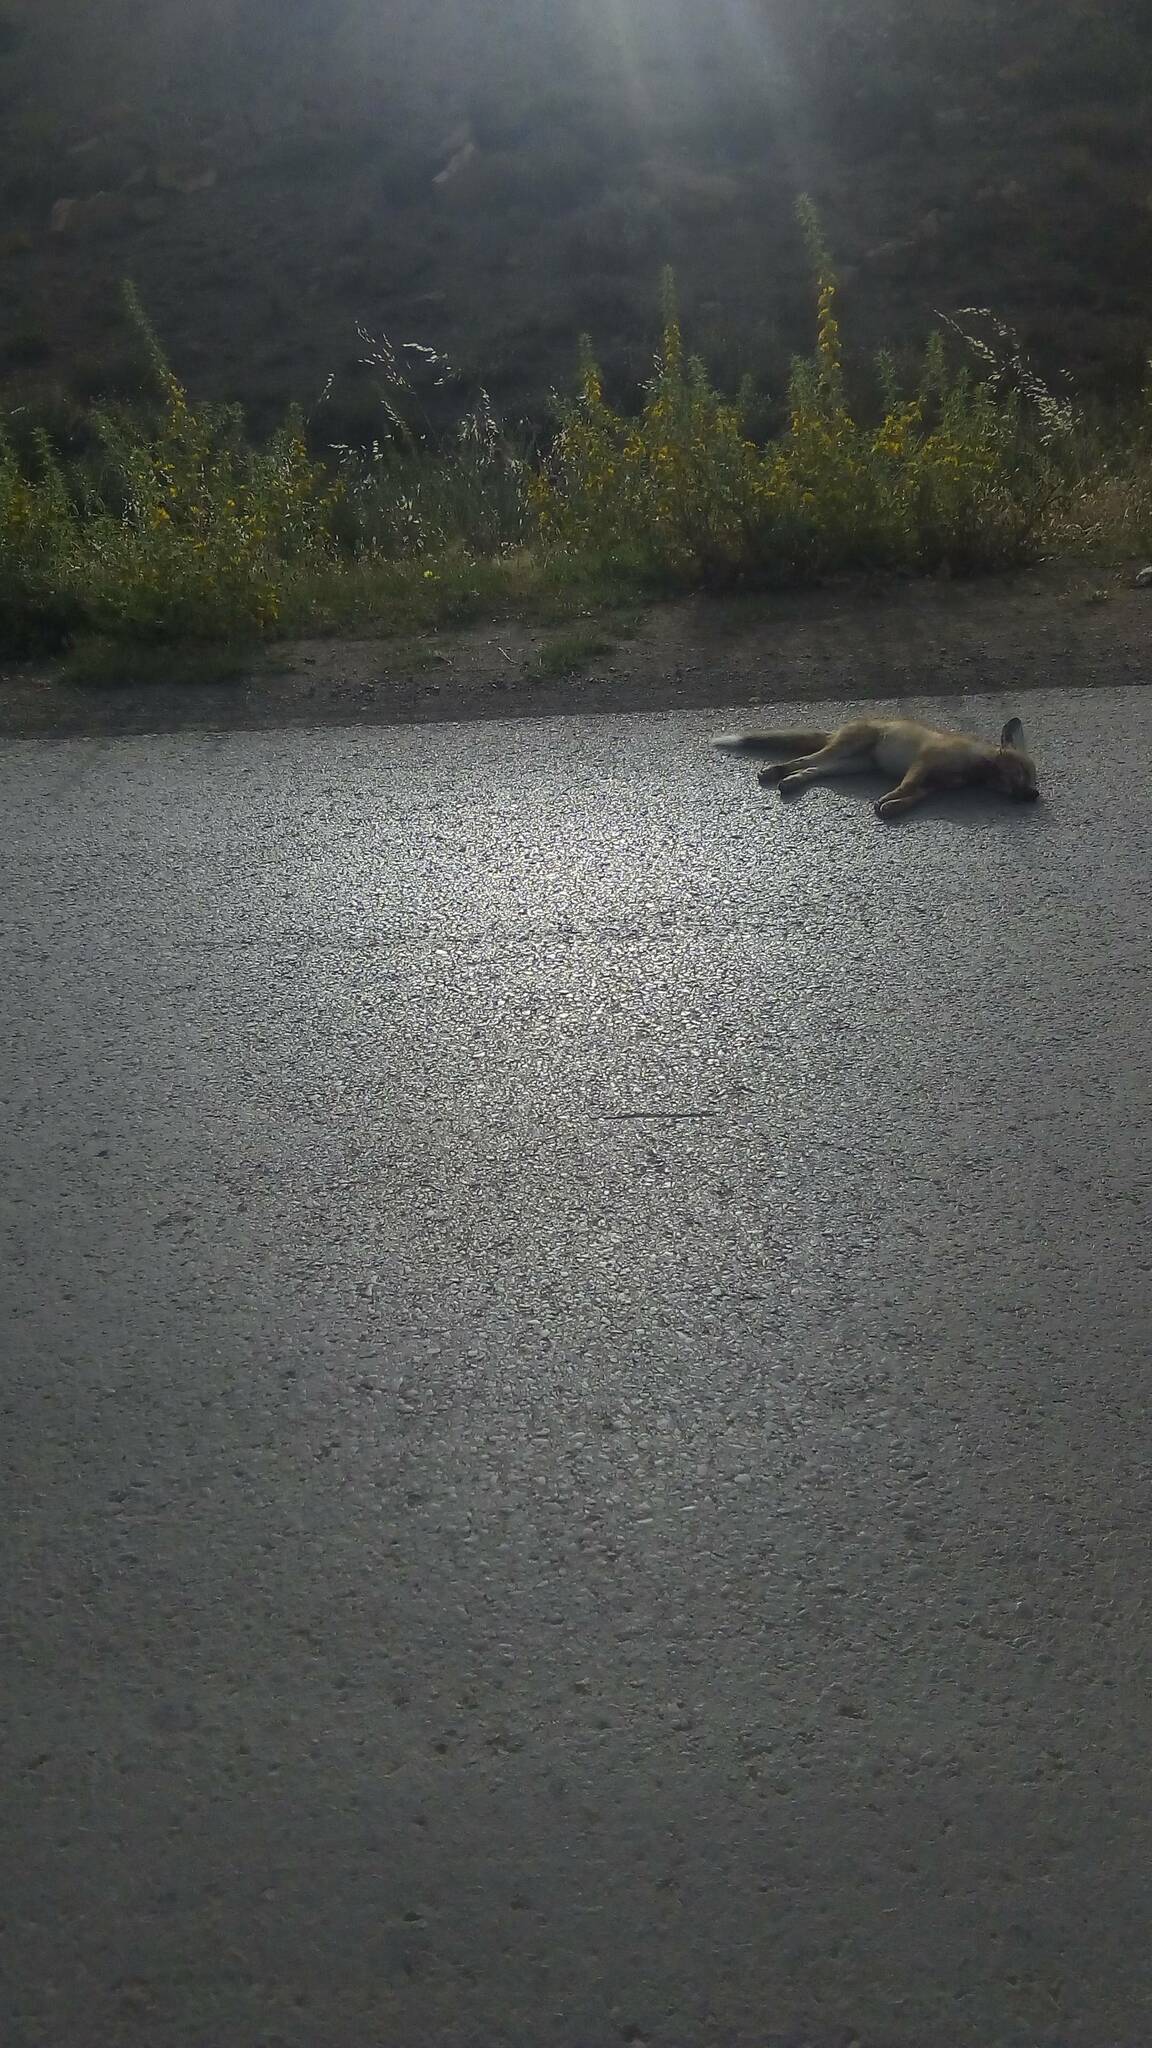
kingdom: Animalia
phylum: Chordata
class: Mammalia
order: Carnivora
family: Canidae
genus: Vulpes
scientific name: Vulpes vulpes
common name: Red fox
